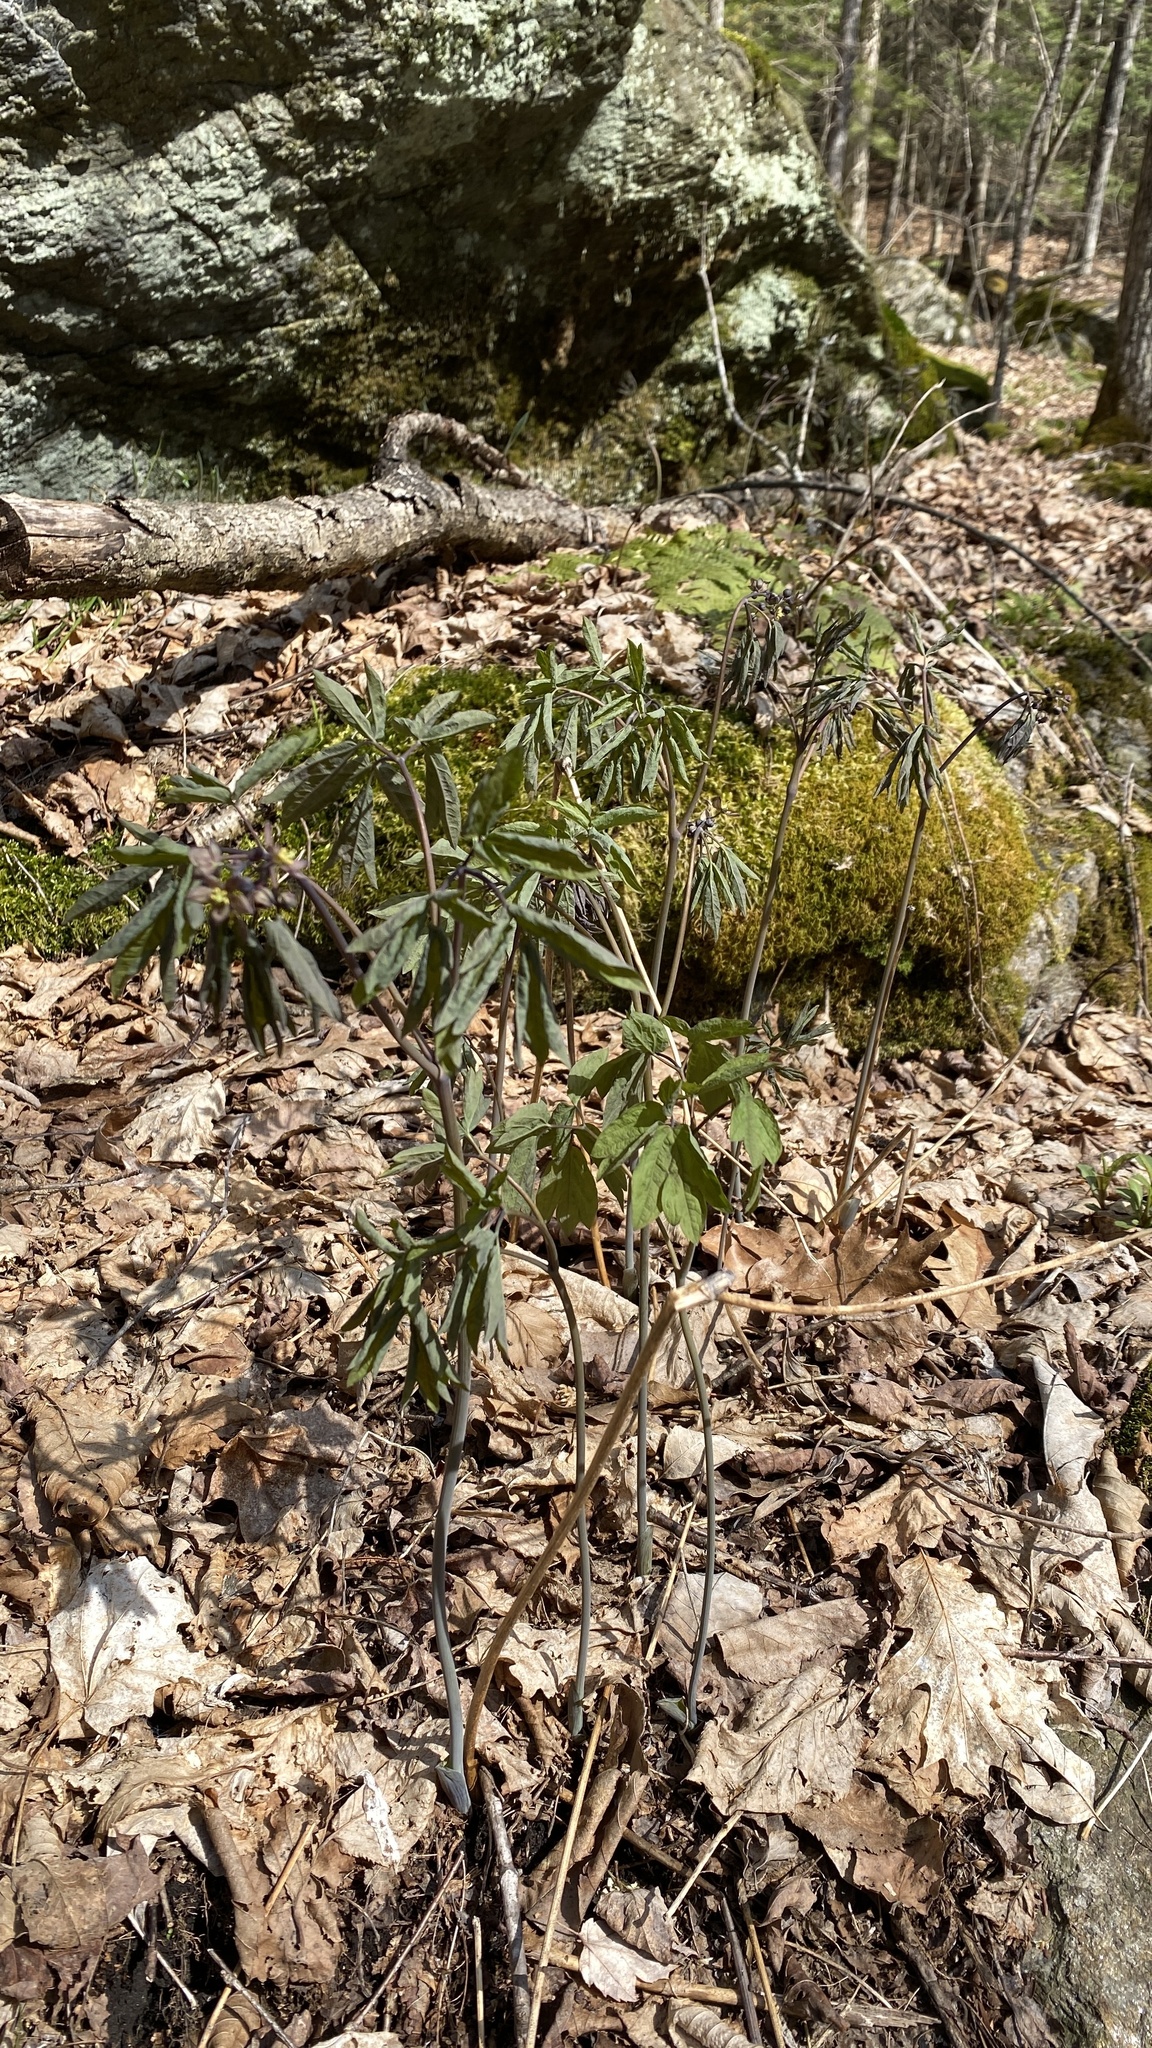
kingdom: Plantae
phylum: Tracheophyta
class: Magnoliopsida
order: Ranunculales
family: Berberidaceae
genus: Caulophyllum
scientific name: Caulophyllum giganteum
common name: Blue cohosh
